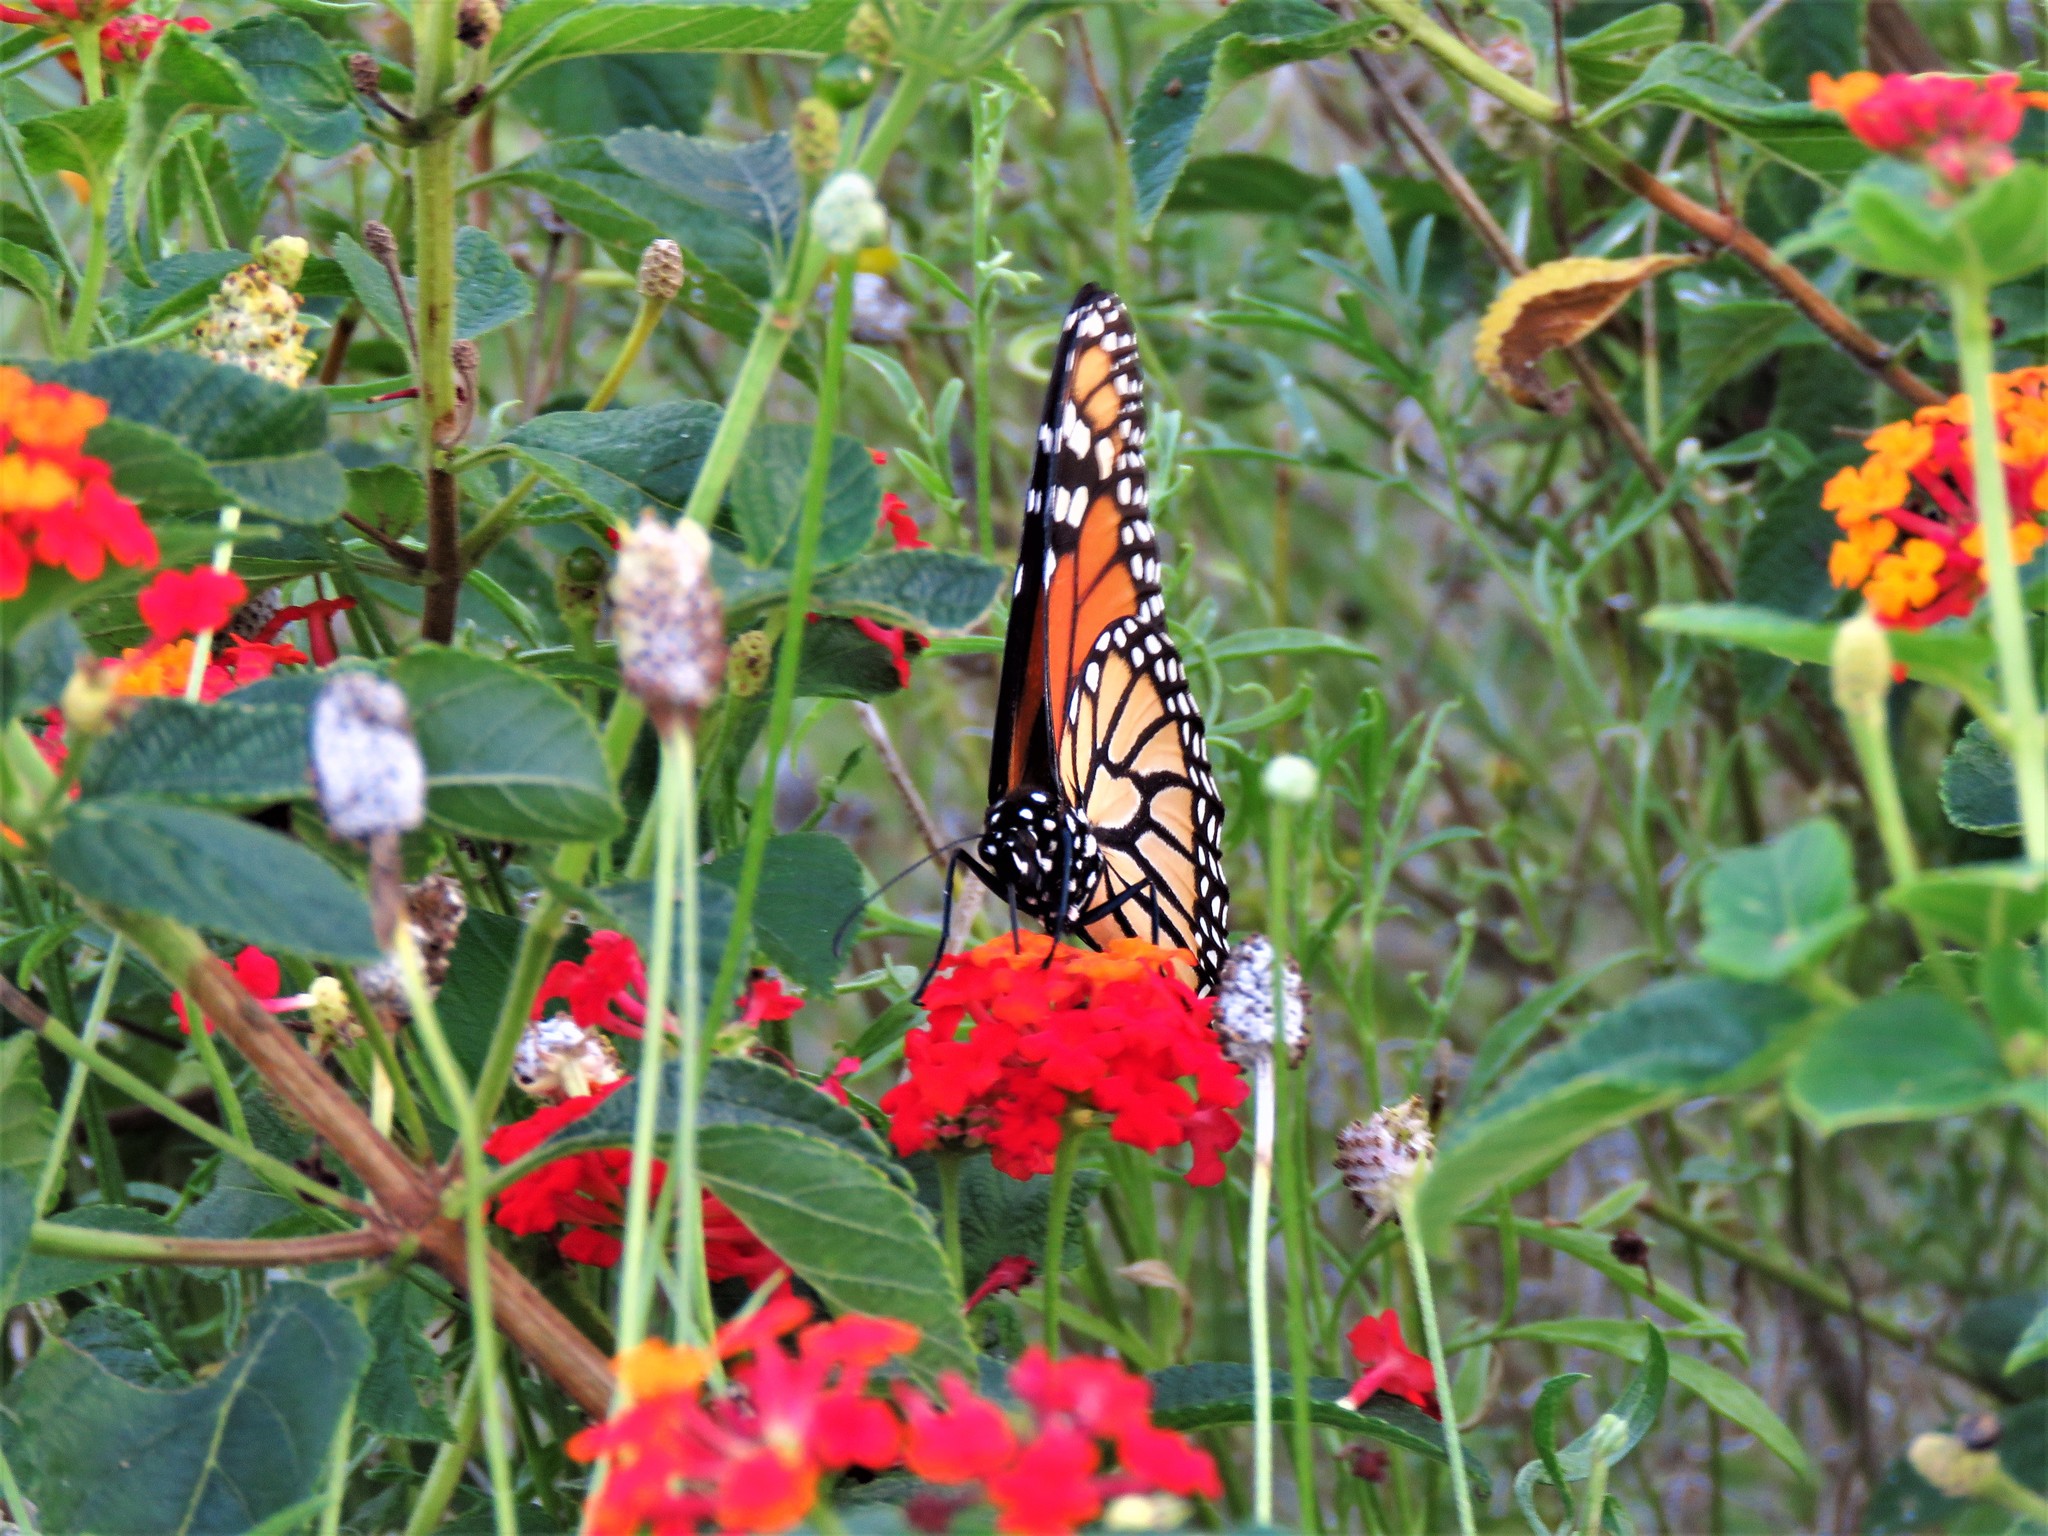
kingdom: Animalia
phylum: Arthropoda
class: Insecta
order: Lepidoptera
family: Nymphalidae
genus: Danaus
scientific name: Danaus plexippus
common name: Monarch
